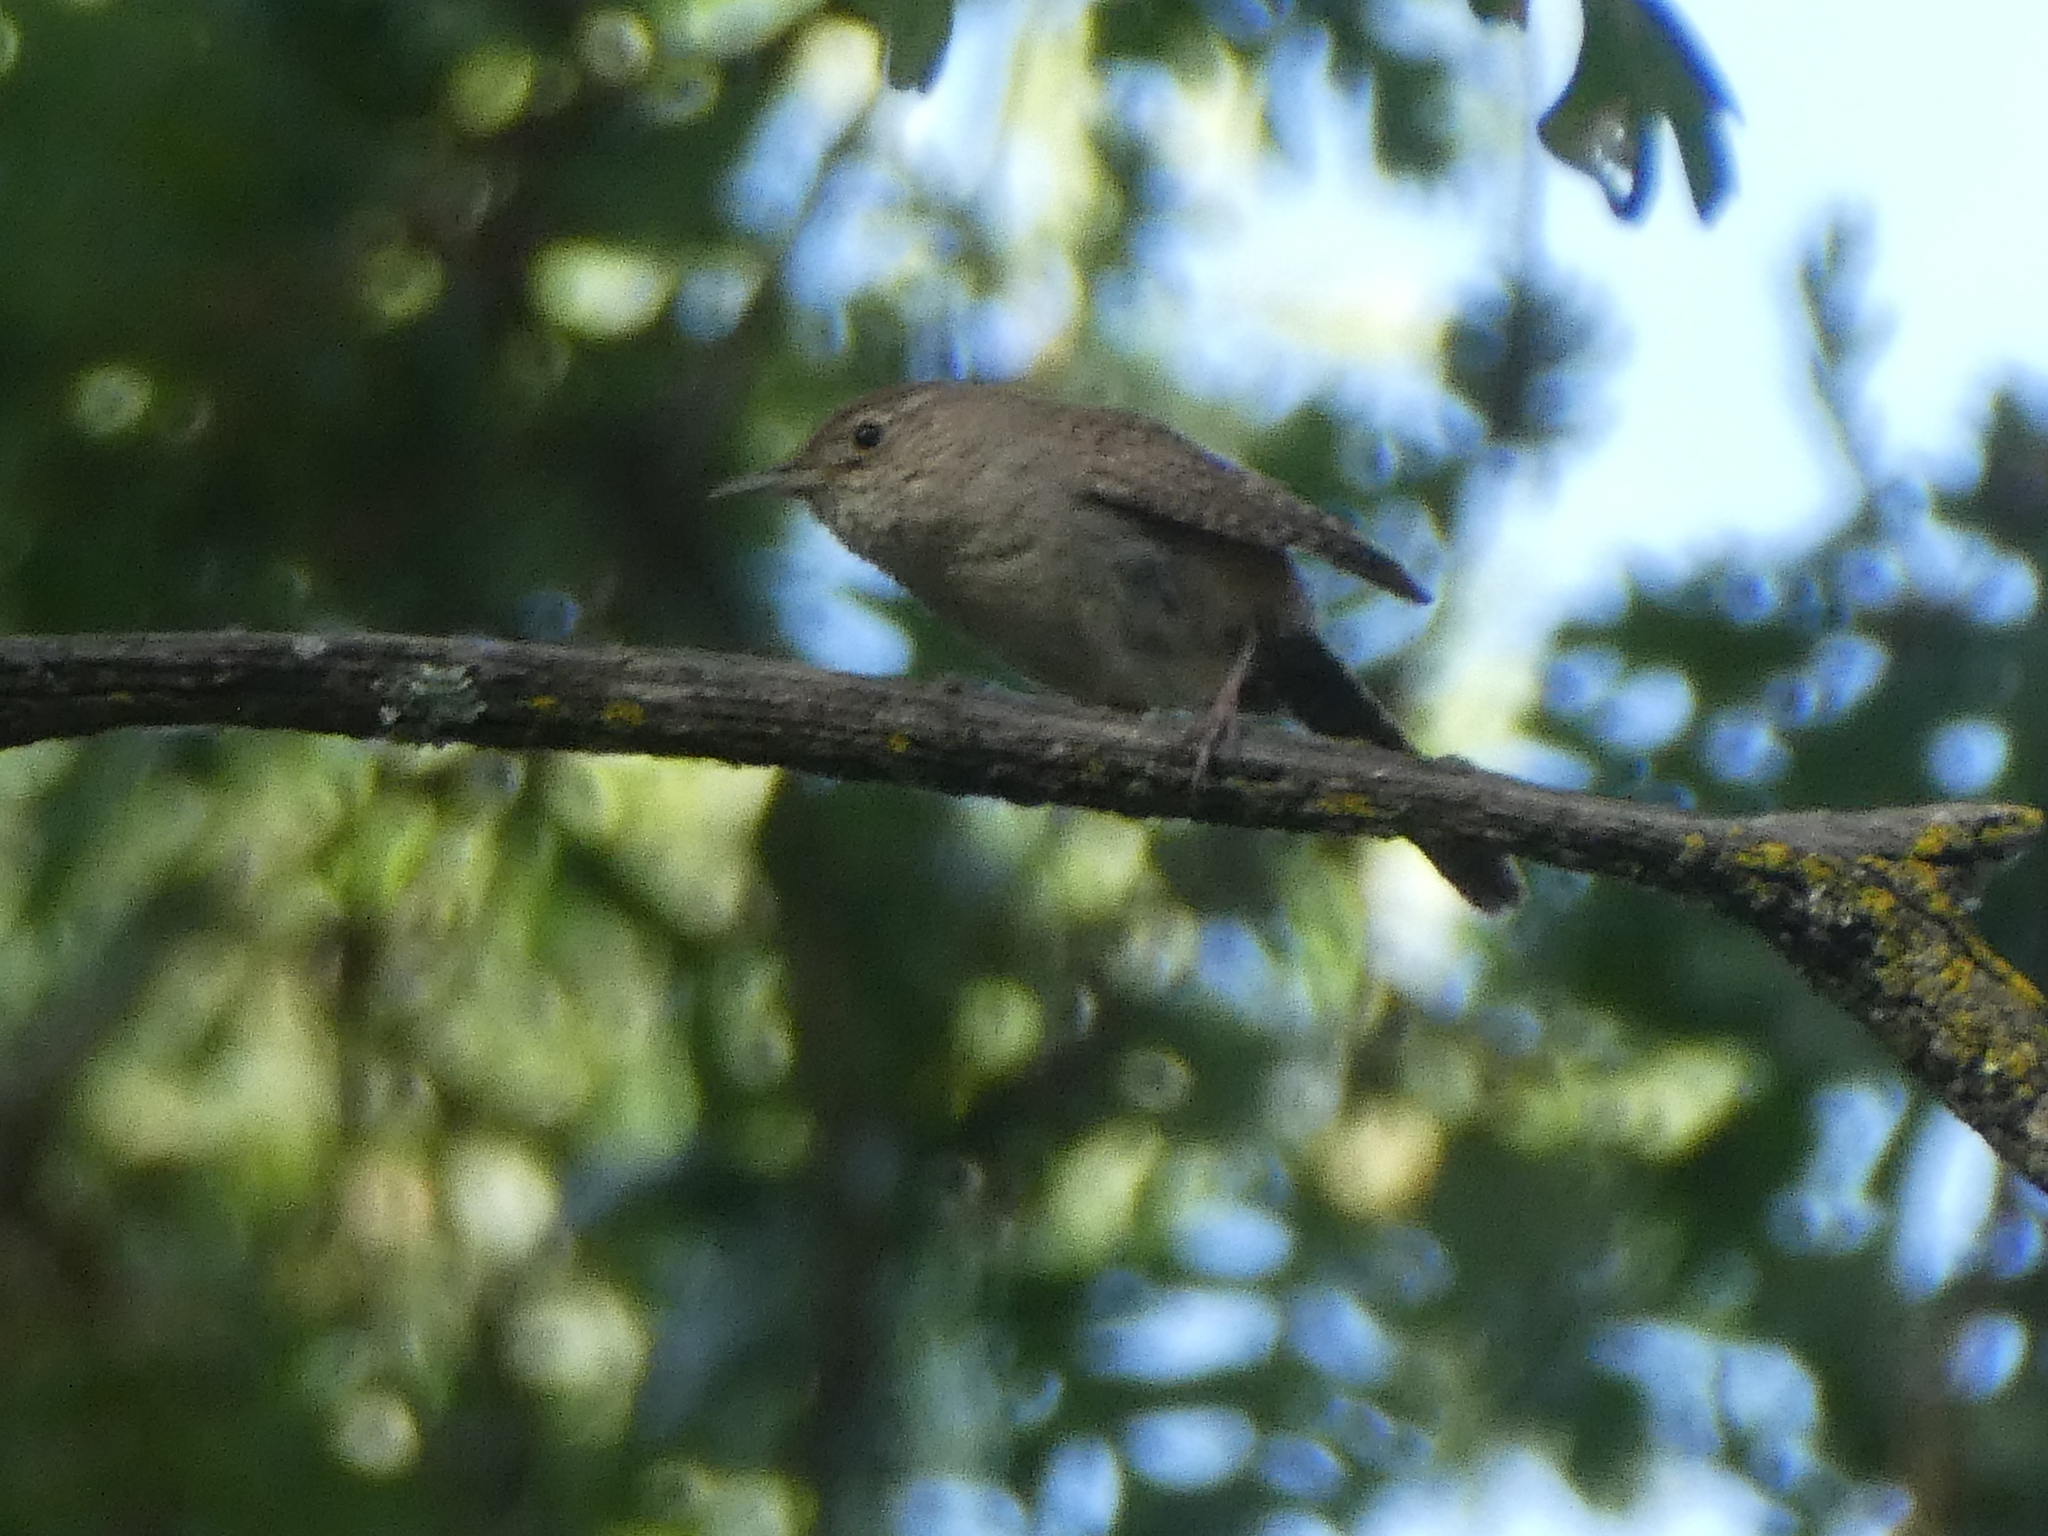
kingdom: Animalia
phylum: Chordata
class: Aves
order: Passeriformes
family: Troglodytidae
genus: Troglodytes
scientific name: Troglodytes aedon
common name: House wren
